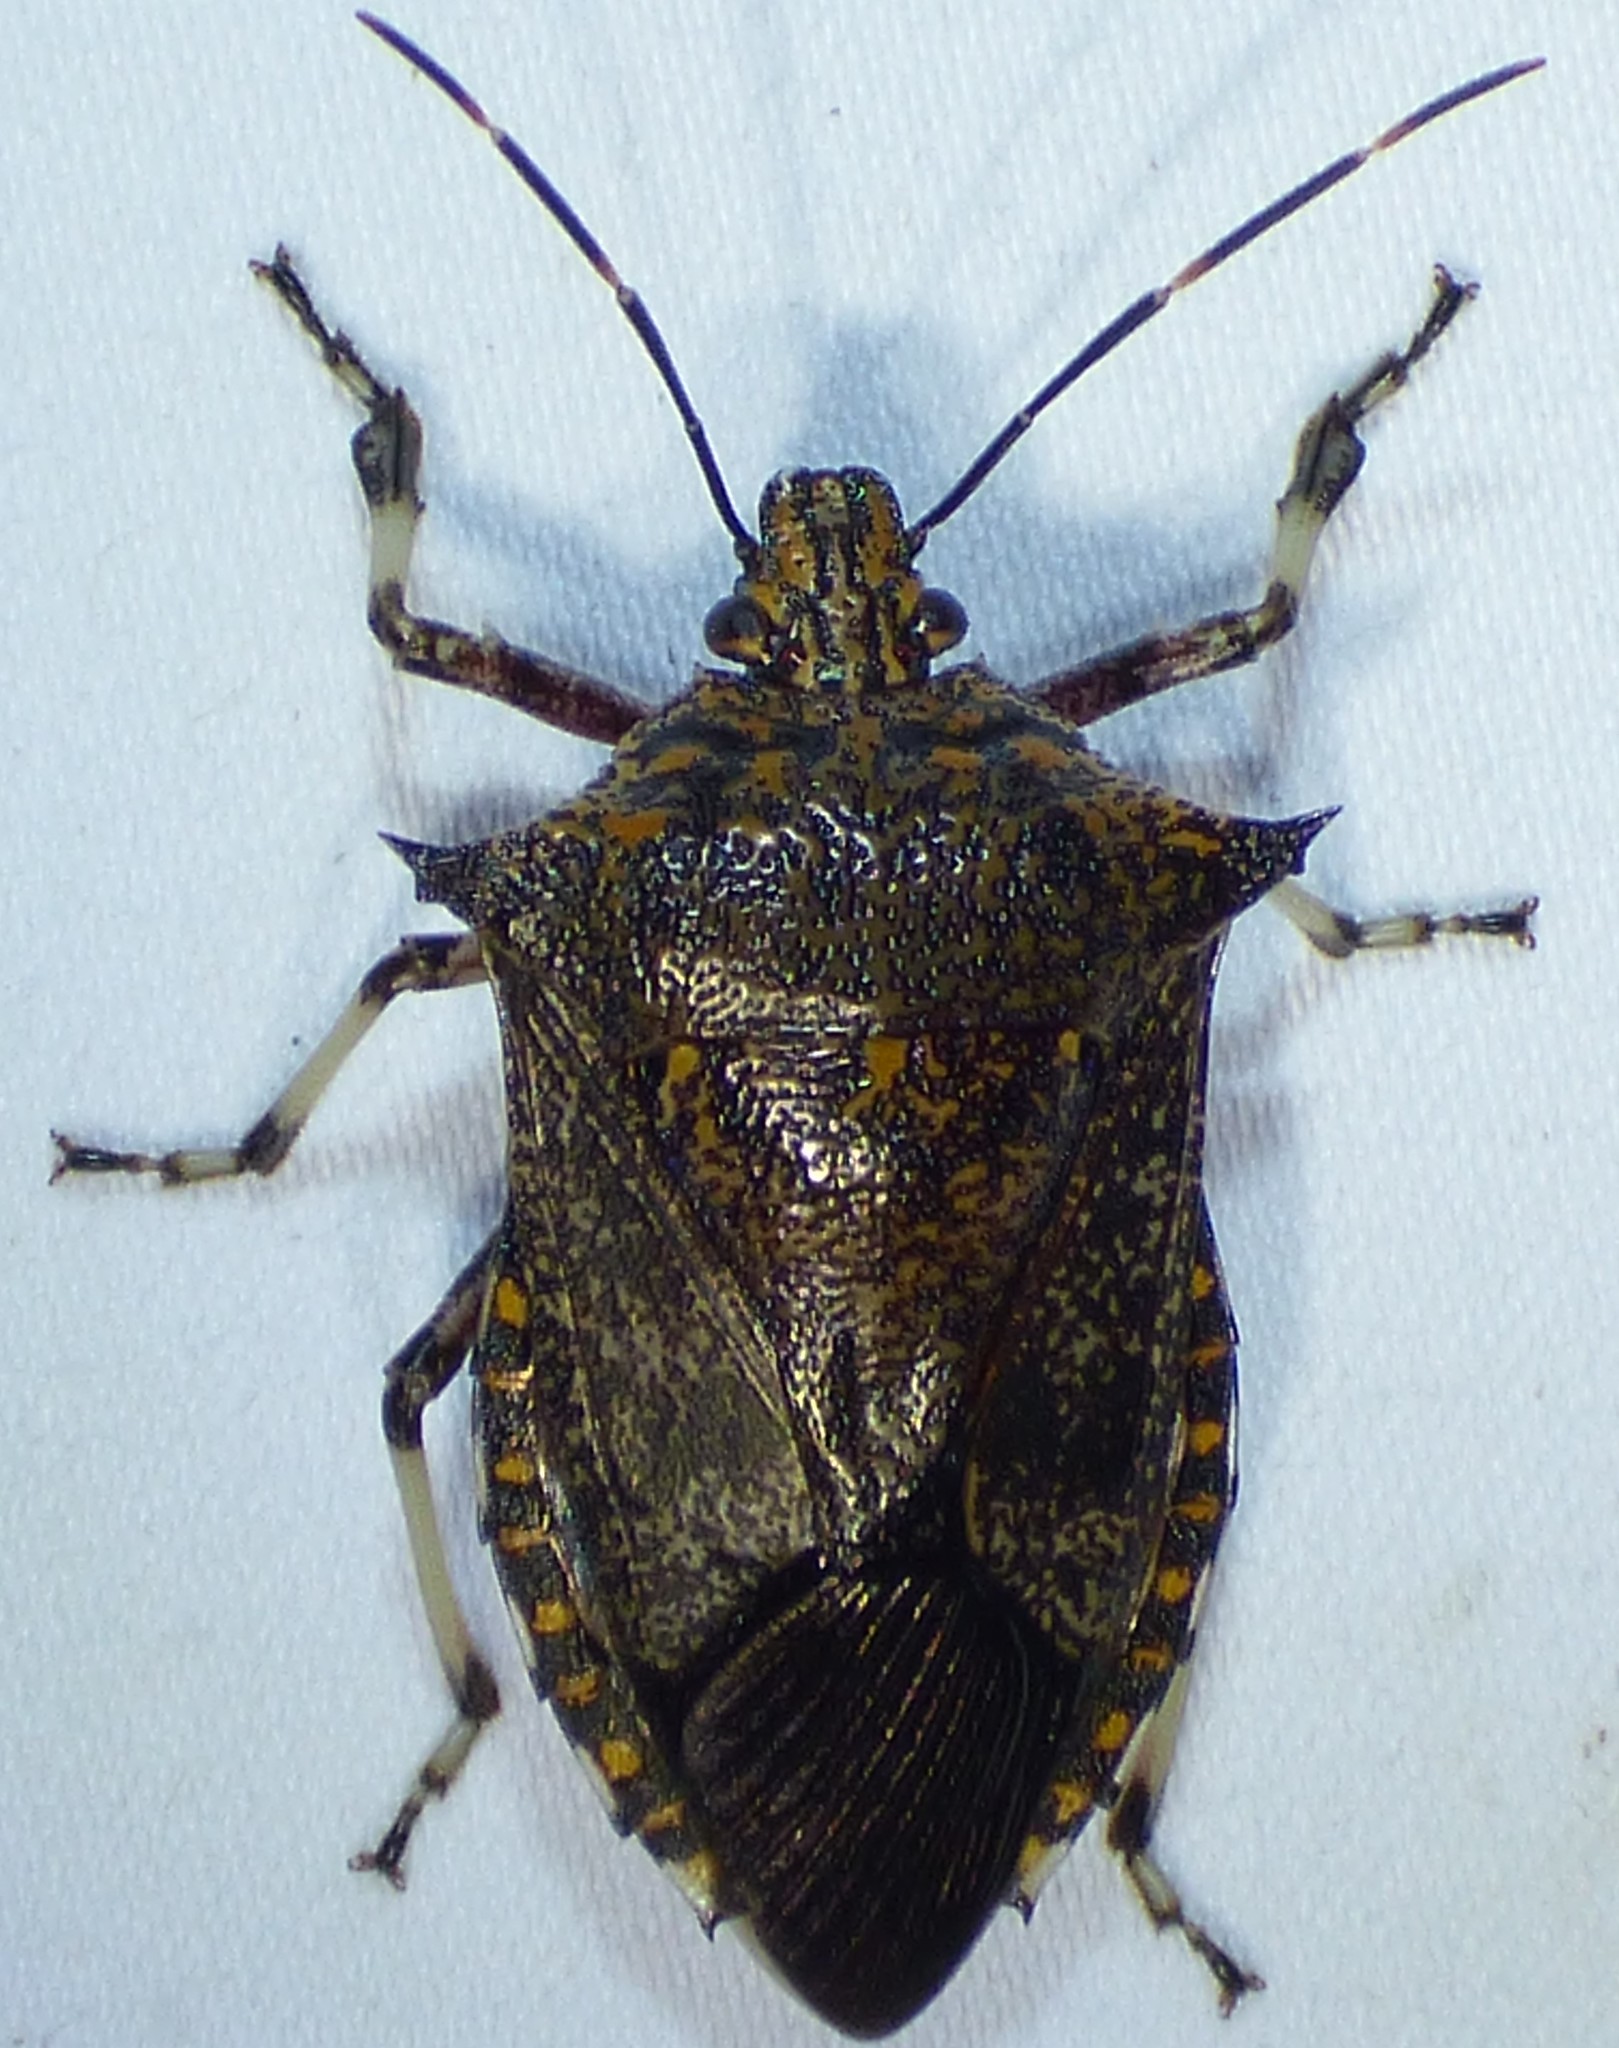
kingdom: Animalia
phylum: Arthropoda
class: Insecta
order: Hemiptera
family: Pentatomidae
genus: Alcaeorrhynchus
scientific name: Alcaeorrhynchus grandis
